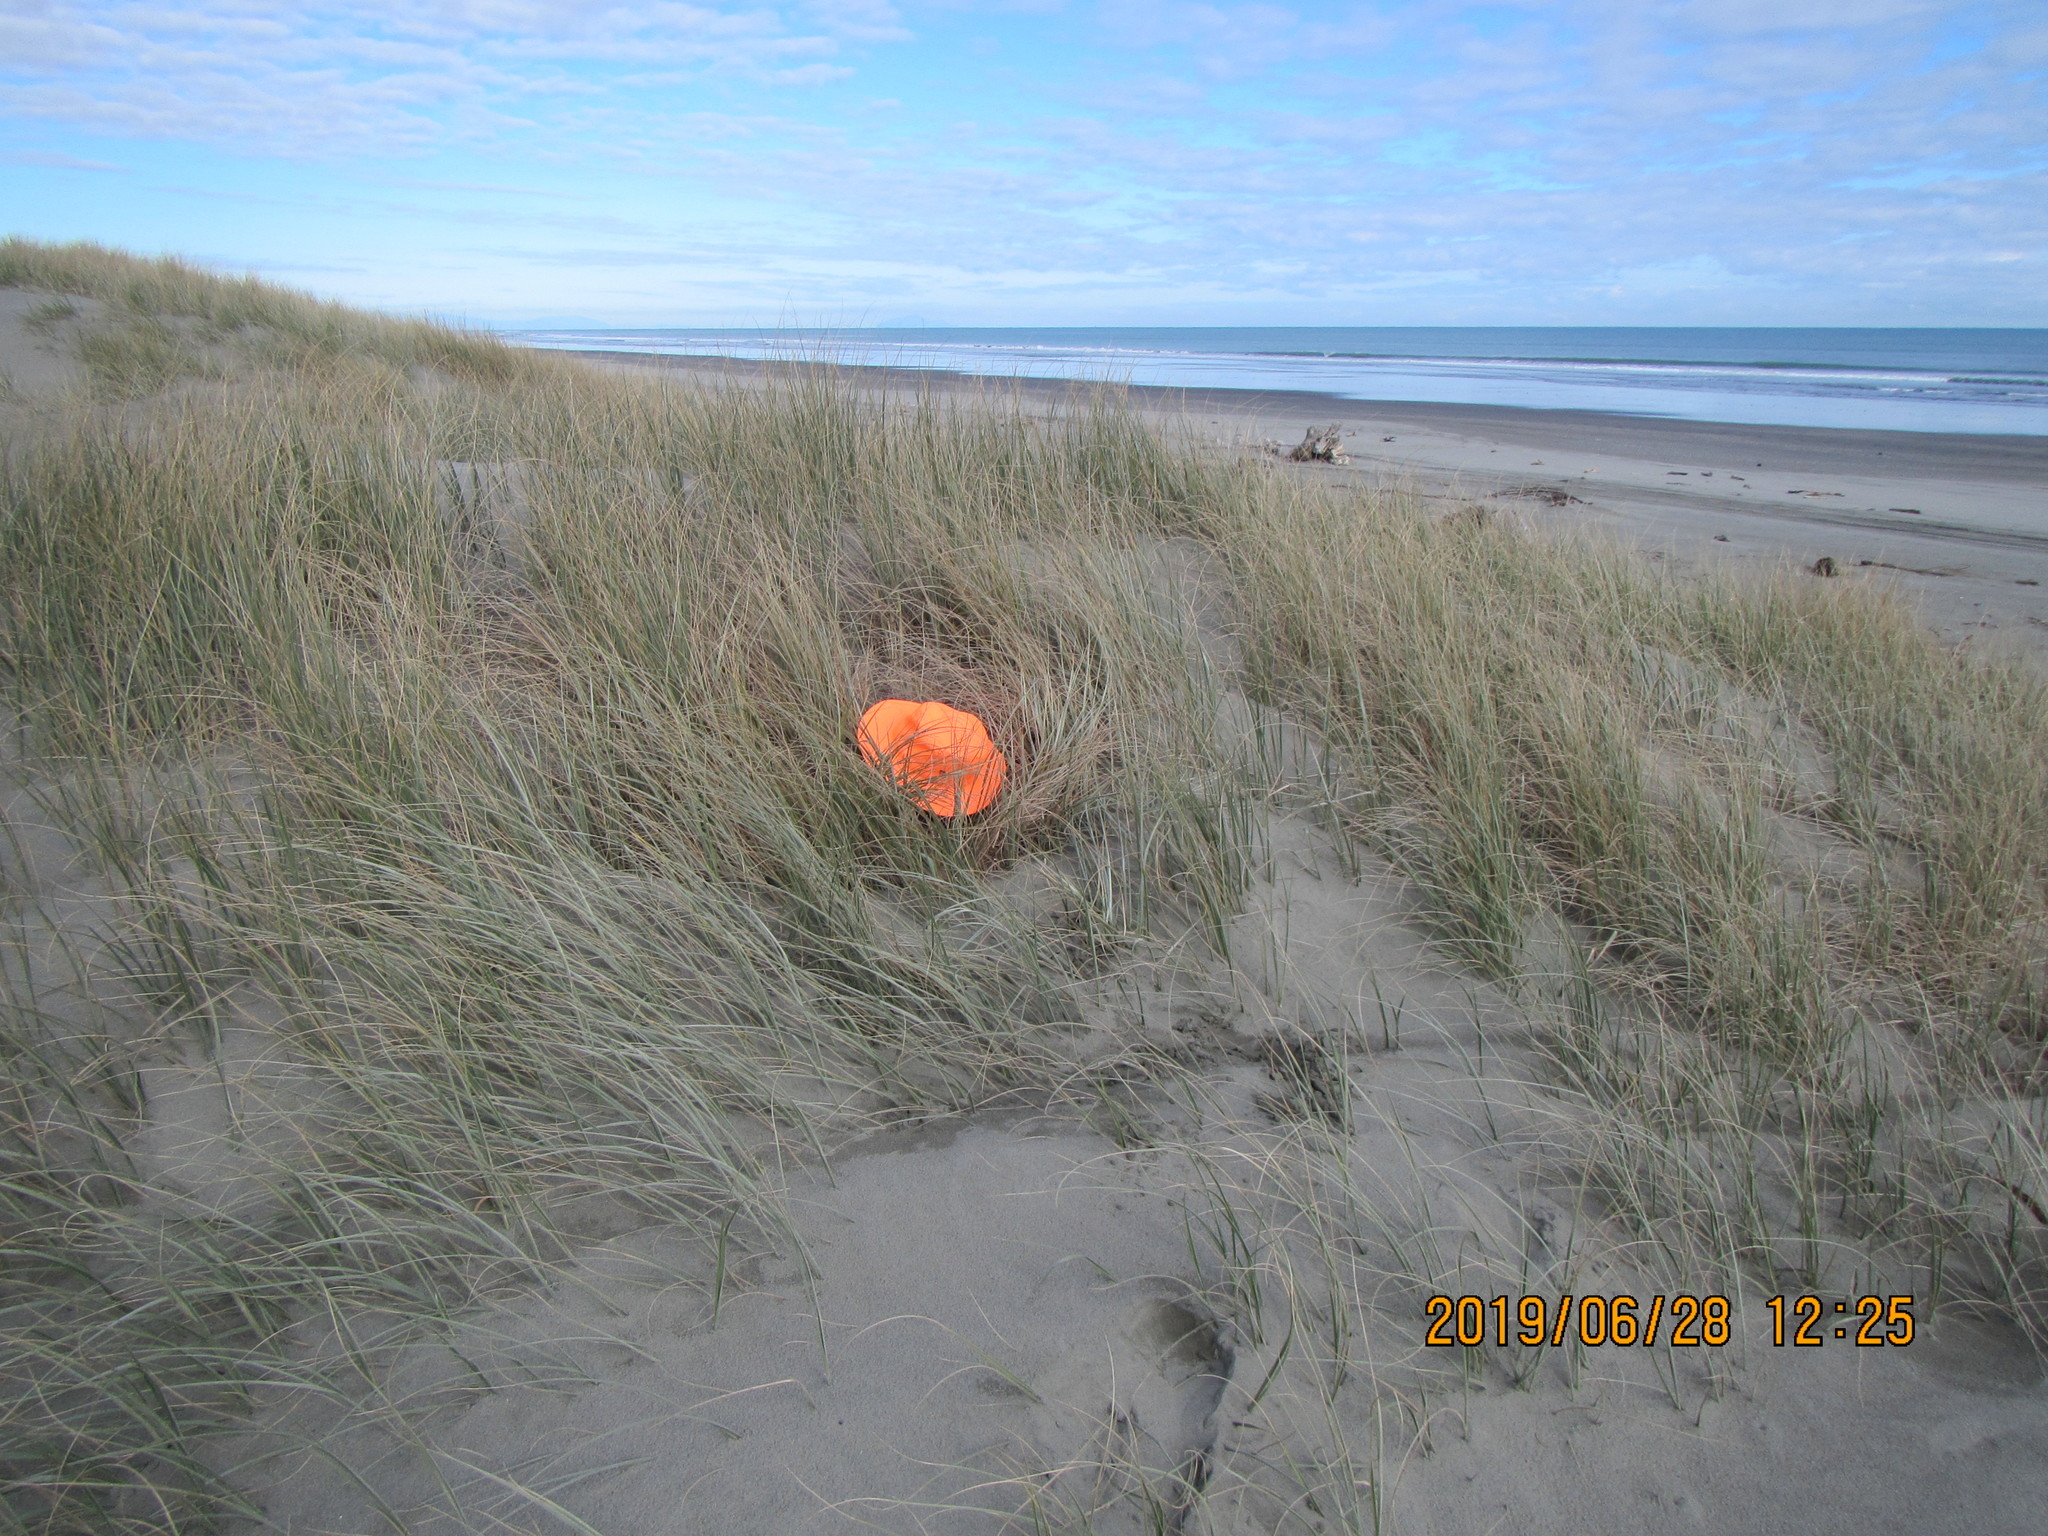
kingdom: Animalia
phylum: Arthropoda
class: Arachnida
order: Araneae
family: Theridiidae
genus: Steatoda
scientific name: Steatoda lepida
